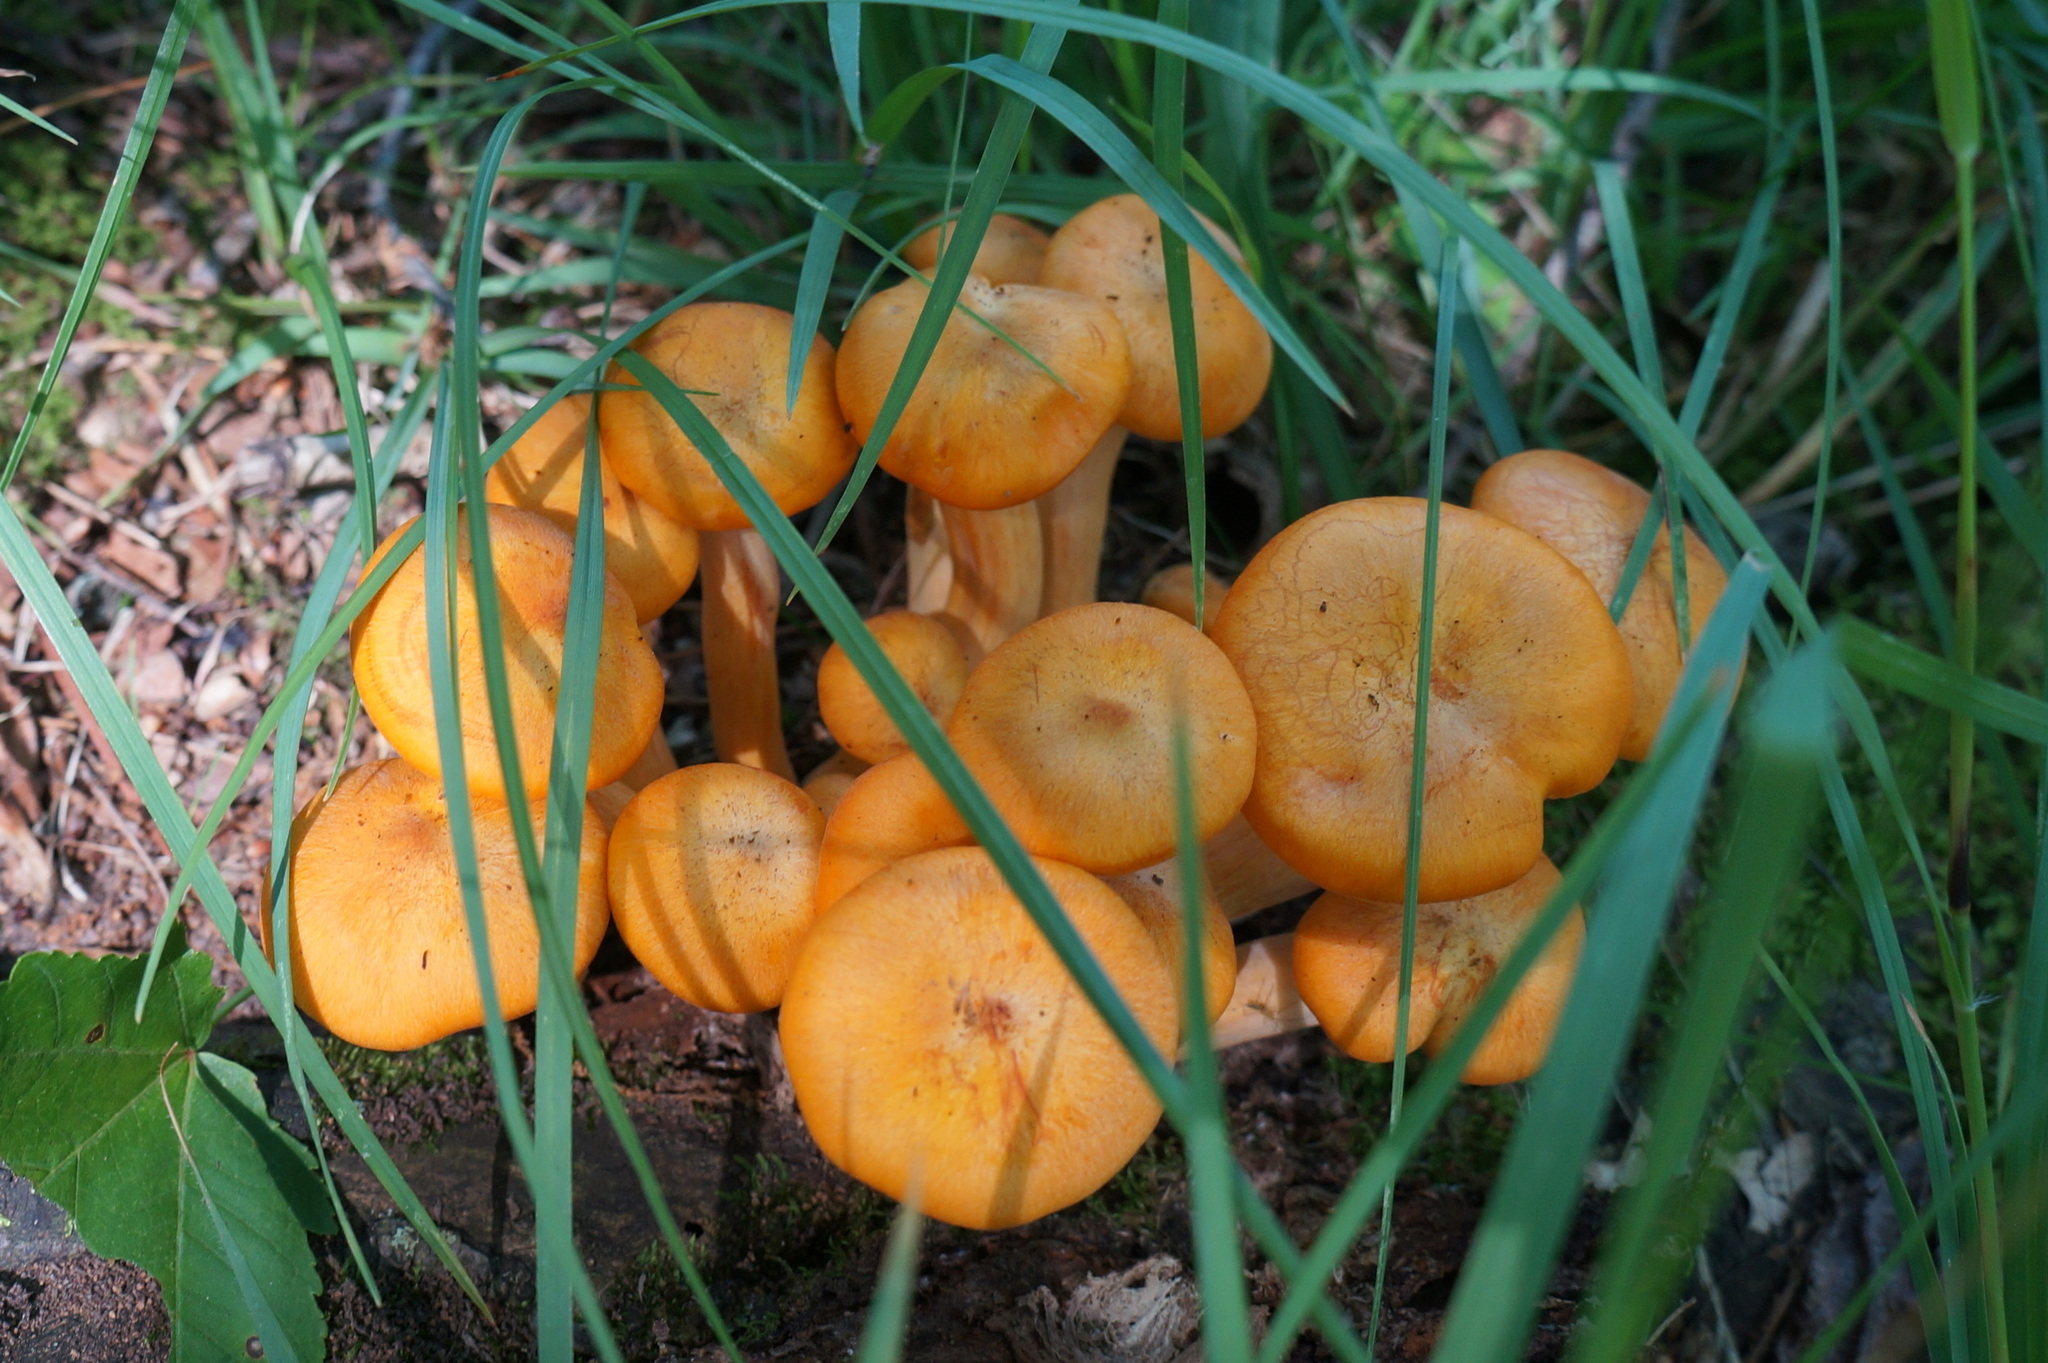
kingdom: Fungi
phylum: Basidiomycota
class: Agaricomycetes
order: Agaricales
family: Omphalotaceae
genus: Omphalotus
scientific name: Omphalotus illudens
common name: Jack o lantern
